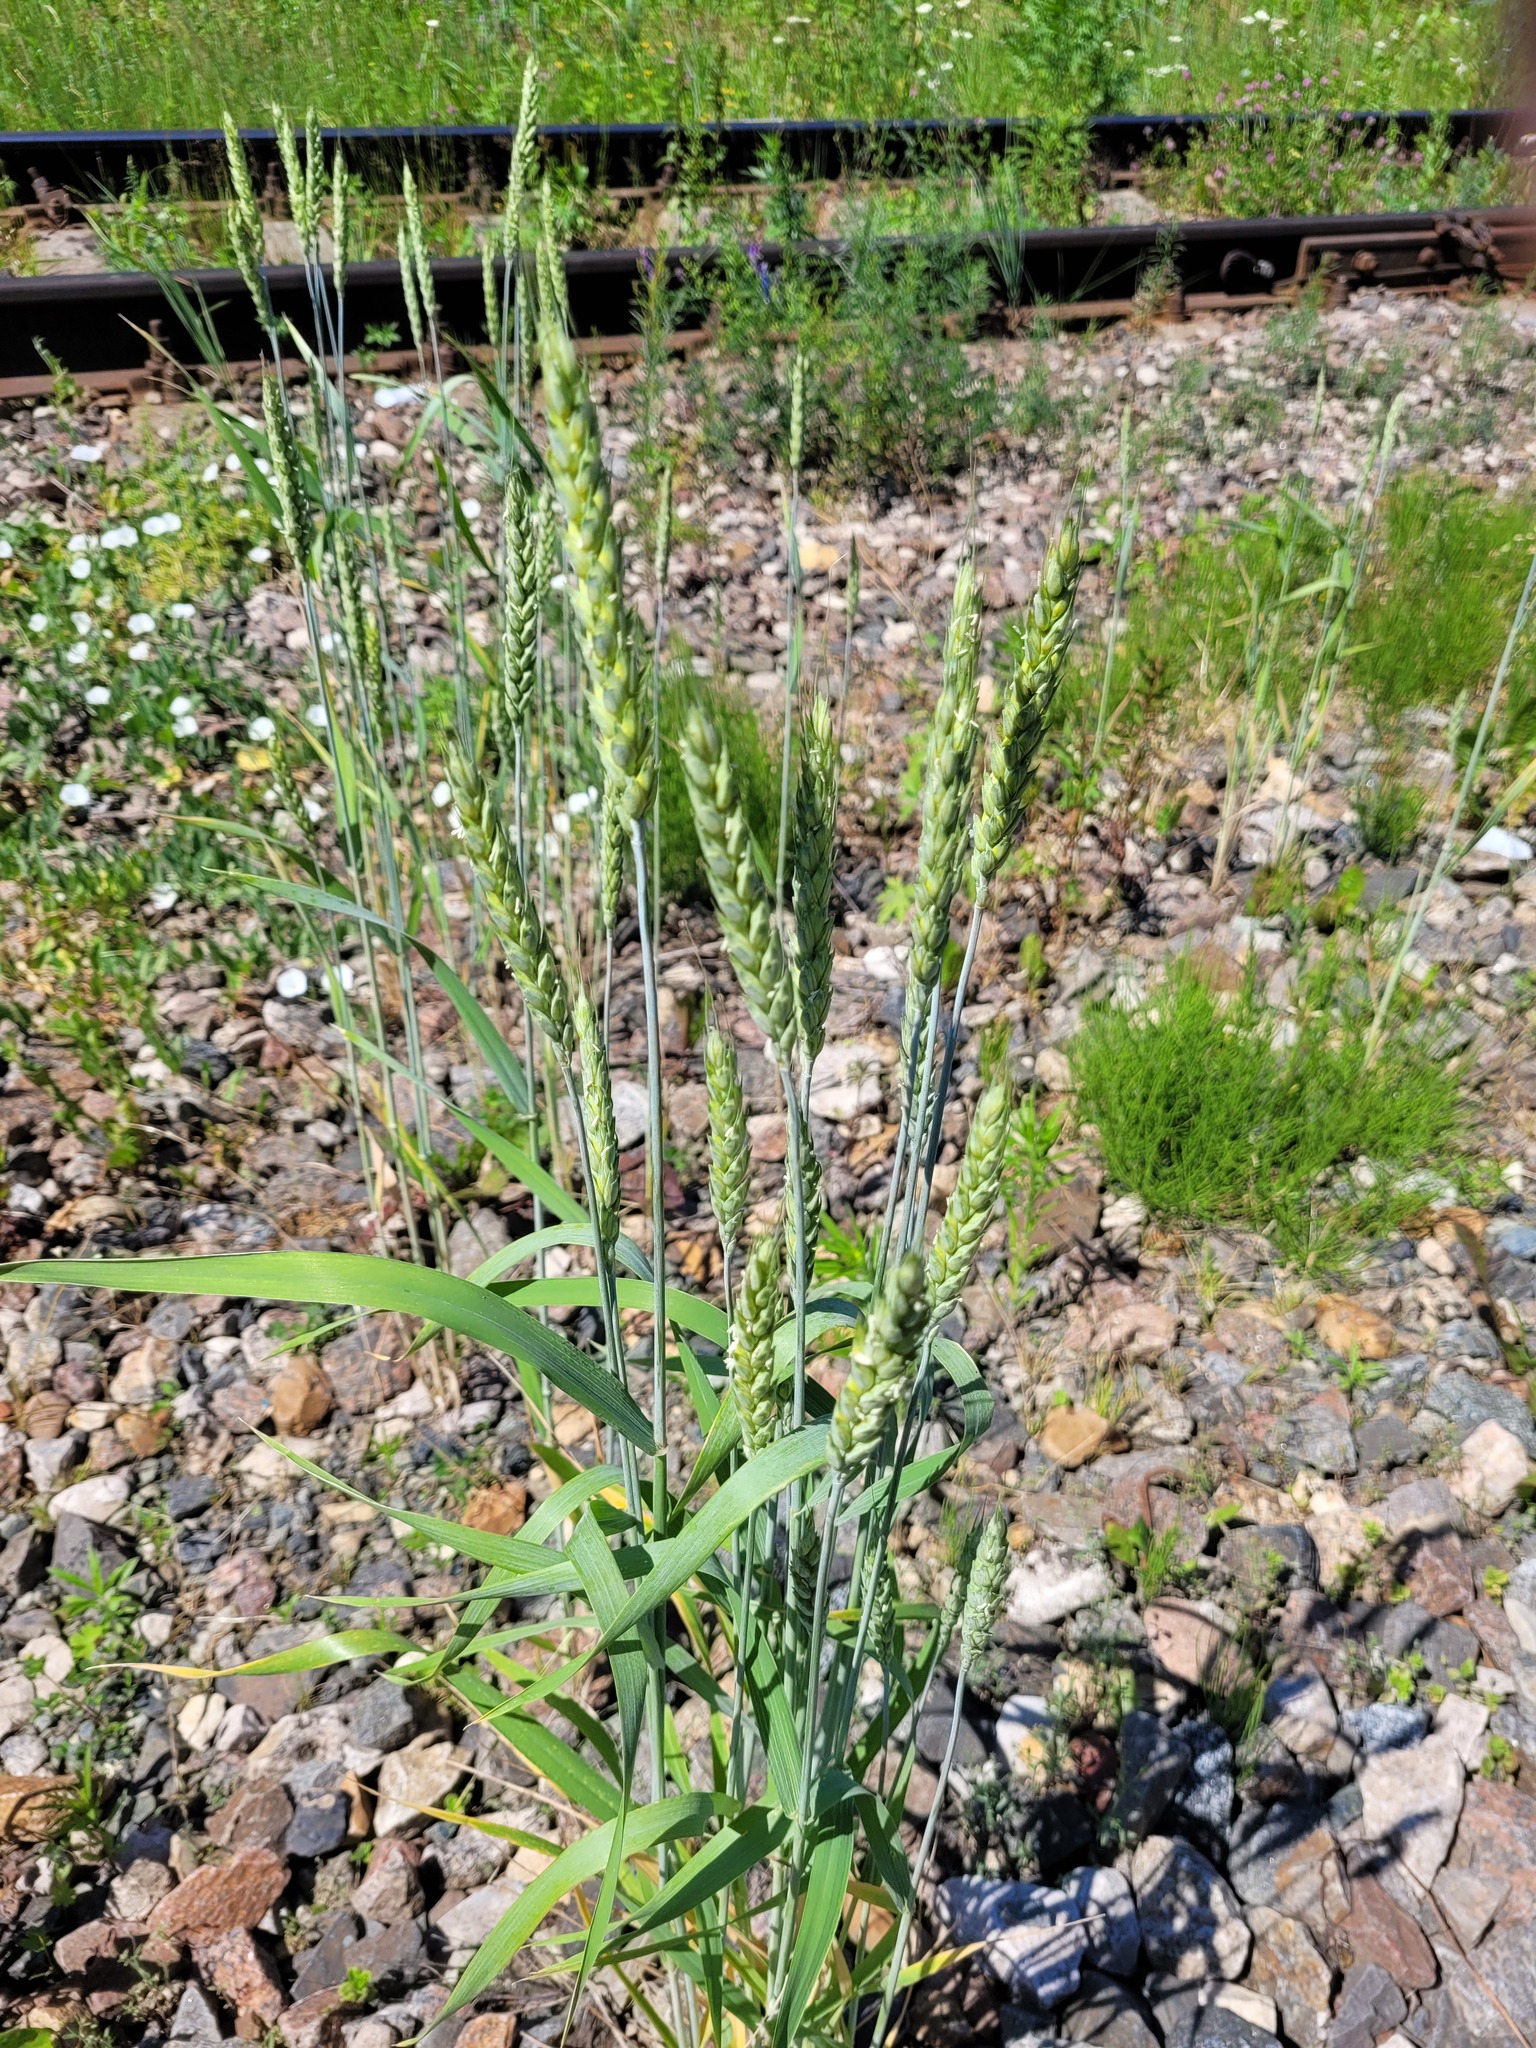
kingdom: Plantae
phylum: Tracheophyta
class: Liliopsida
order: Poales
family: Poaceae
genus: Triticum
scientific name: Triticum aestivum
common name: Common wheat
